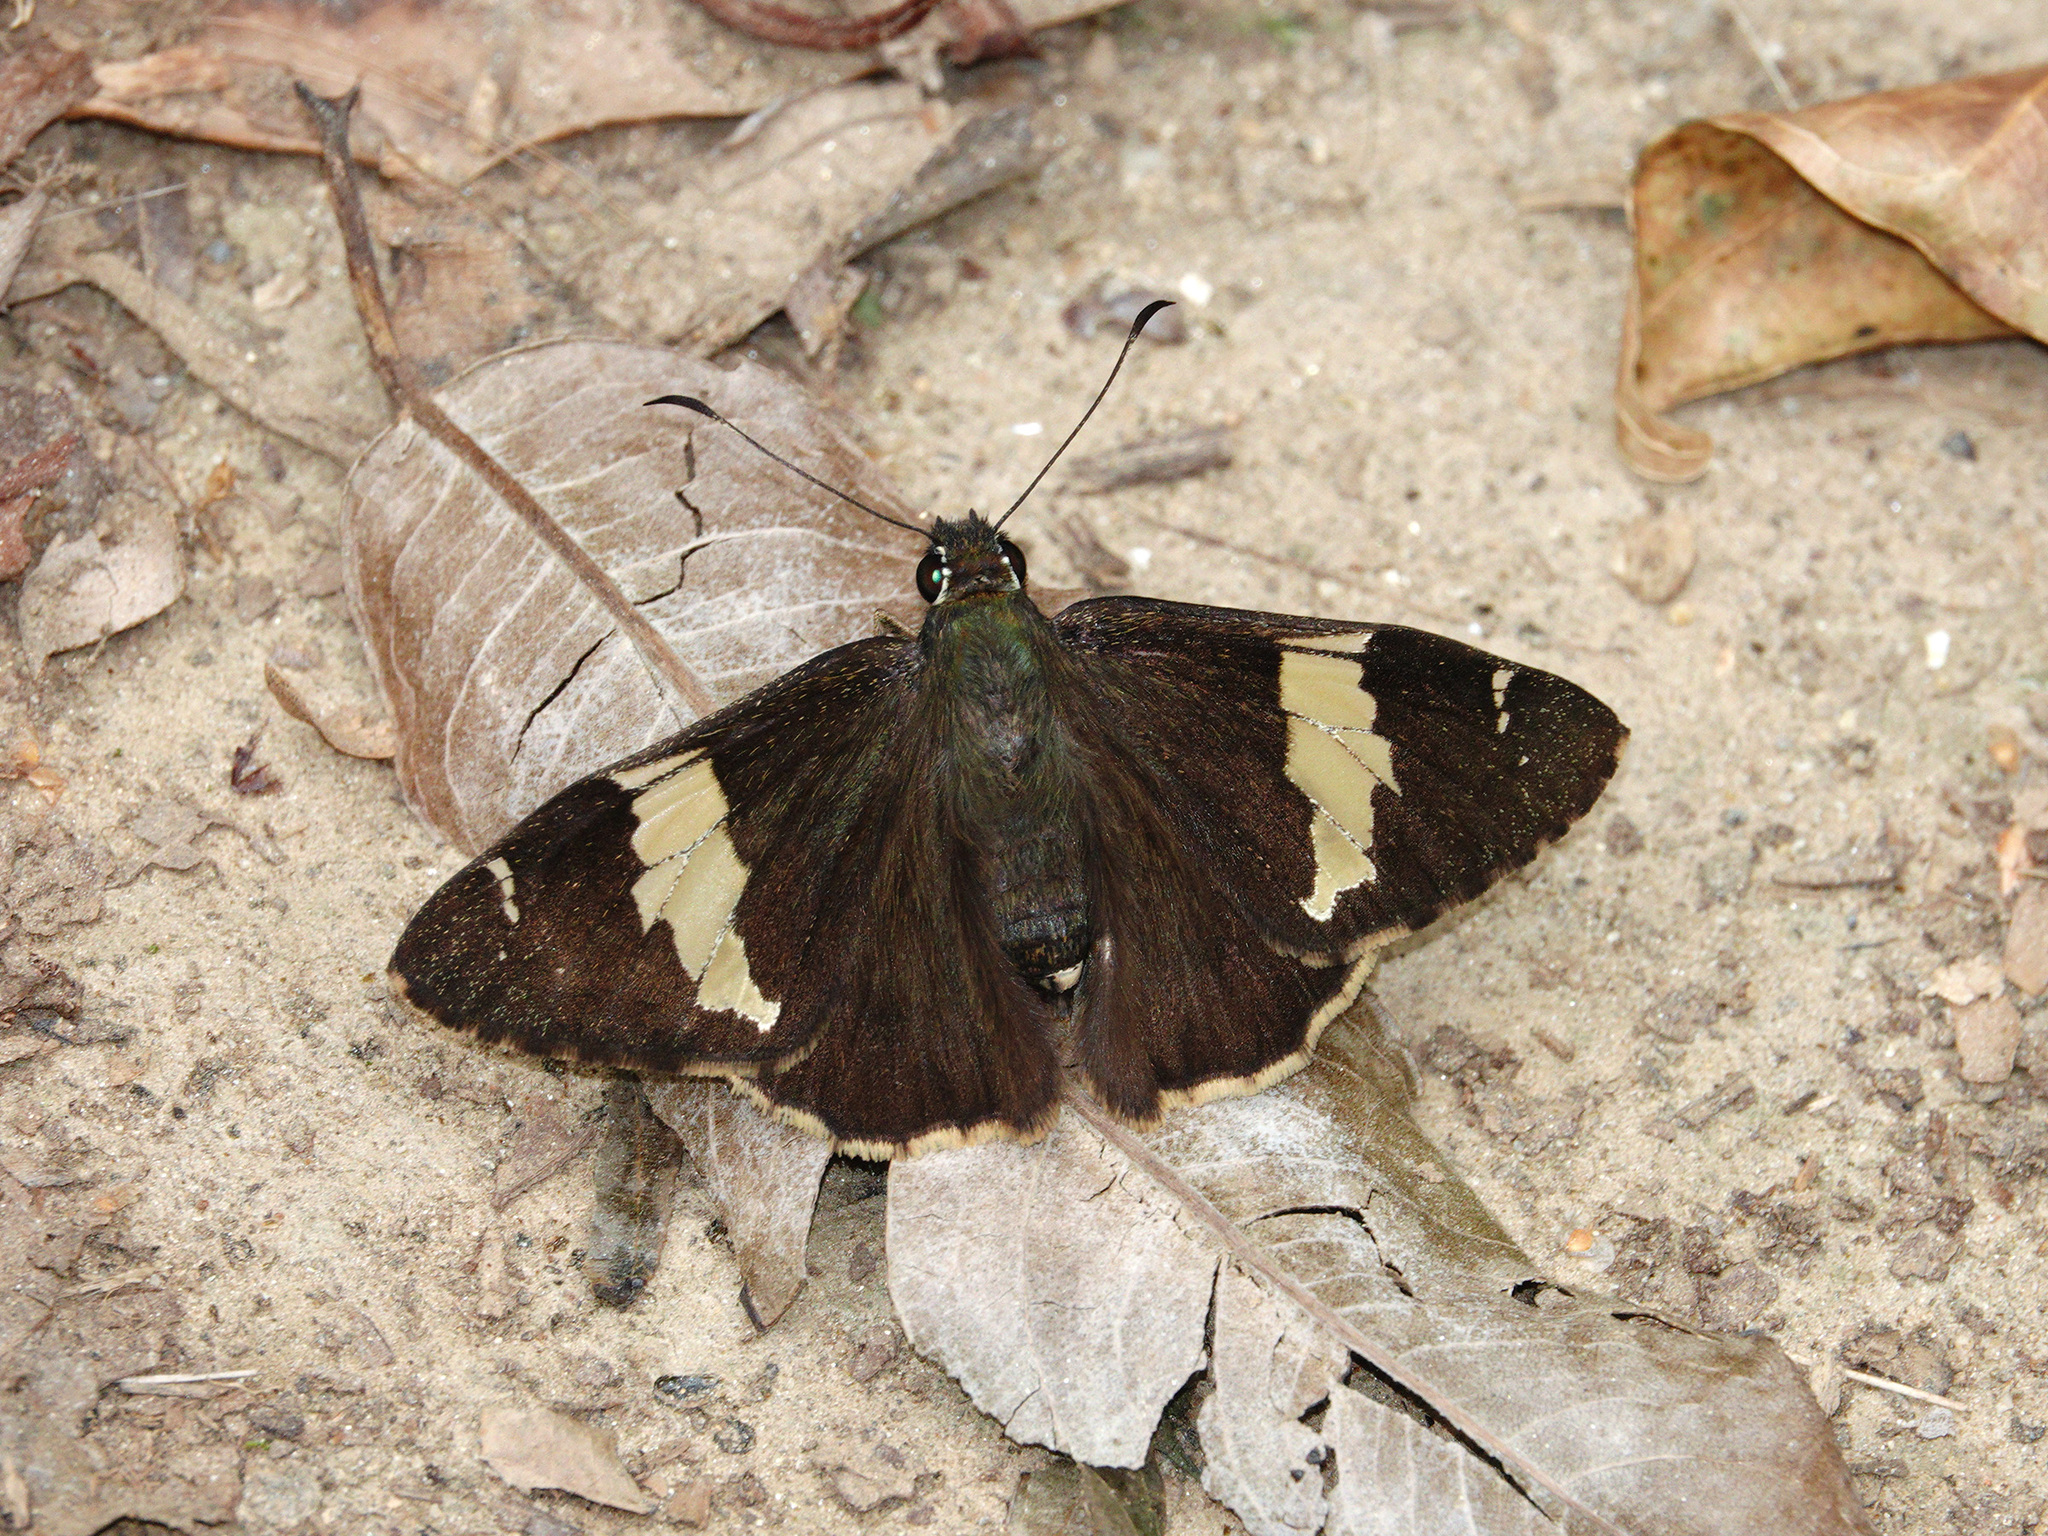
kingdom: Animalia
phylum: Arthropoda
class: Insecta
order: Lepidoptera
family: Hesperiidae
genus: Lobocla
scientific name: Lobocla liliana
